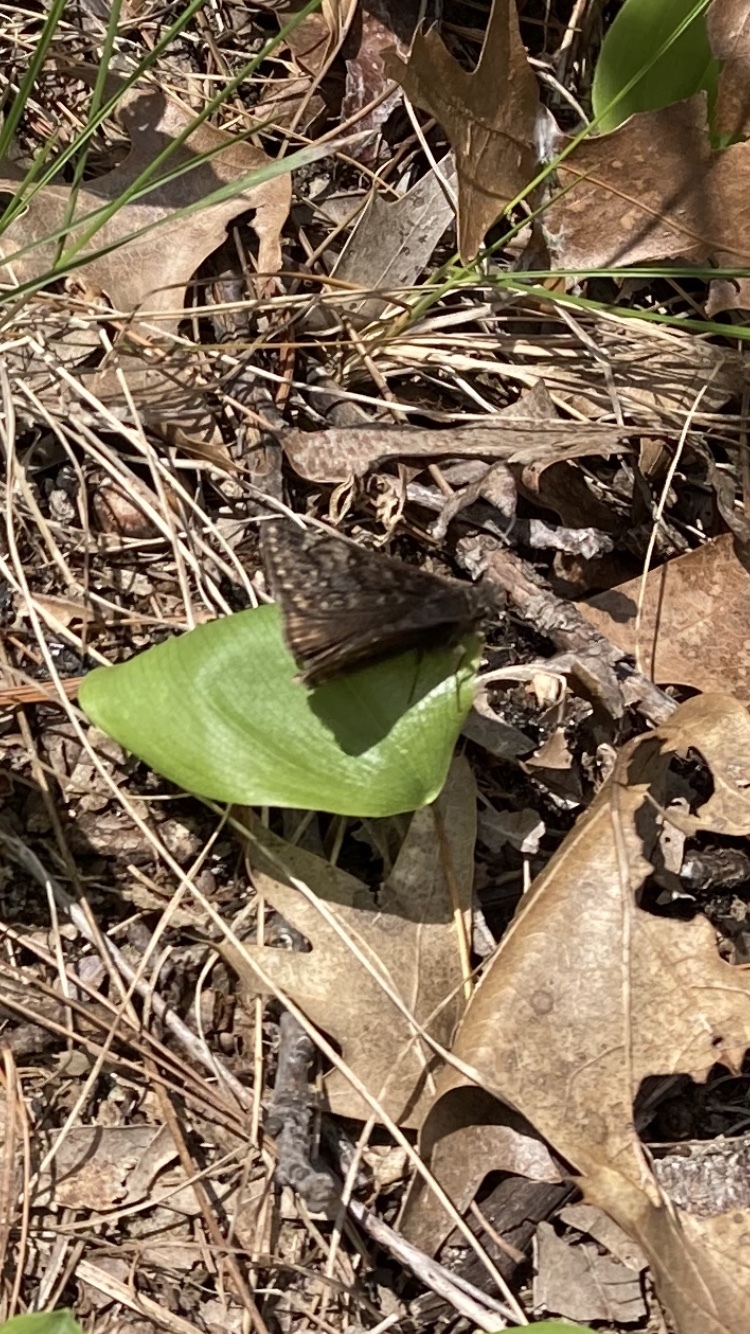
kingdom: Animalia
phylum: Arthropoda
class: Insecta
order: Lepidoptera
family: Hesperiidae
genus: Erynnis
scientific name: Erynnis juvenalis
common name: Juvenal's duskywing
